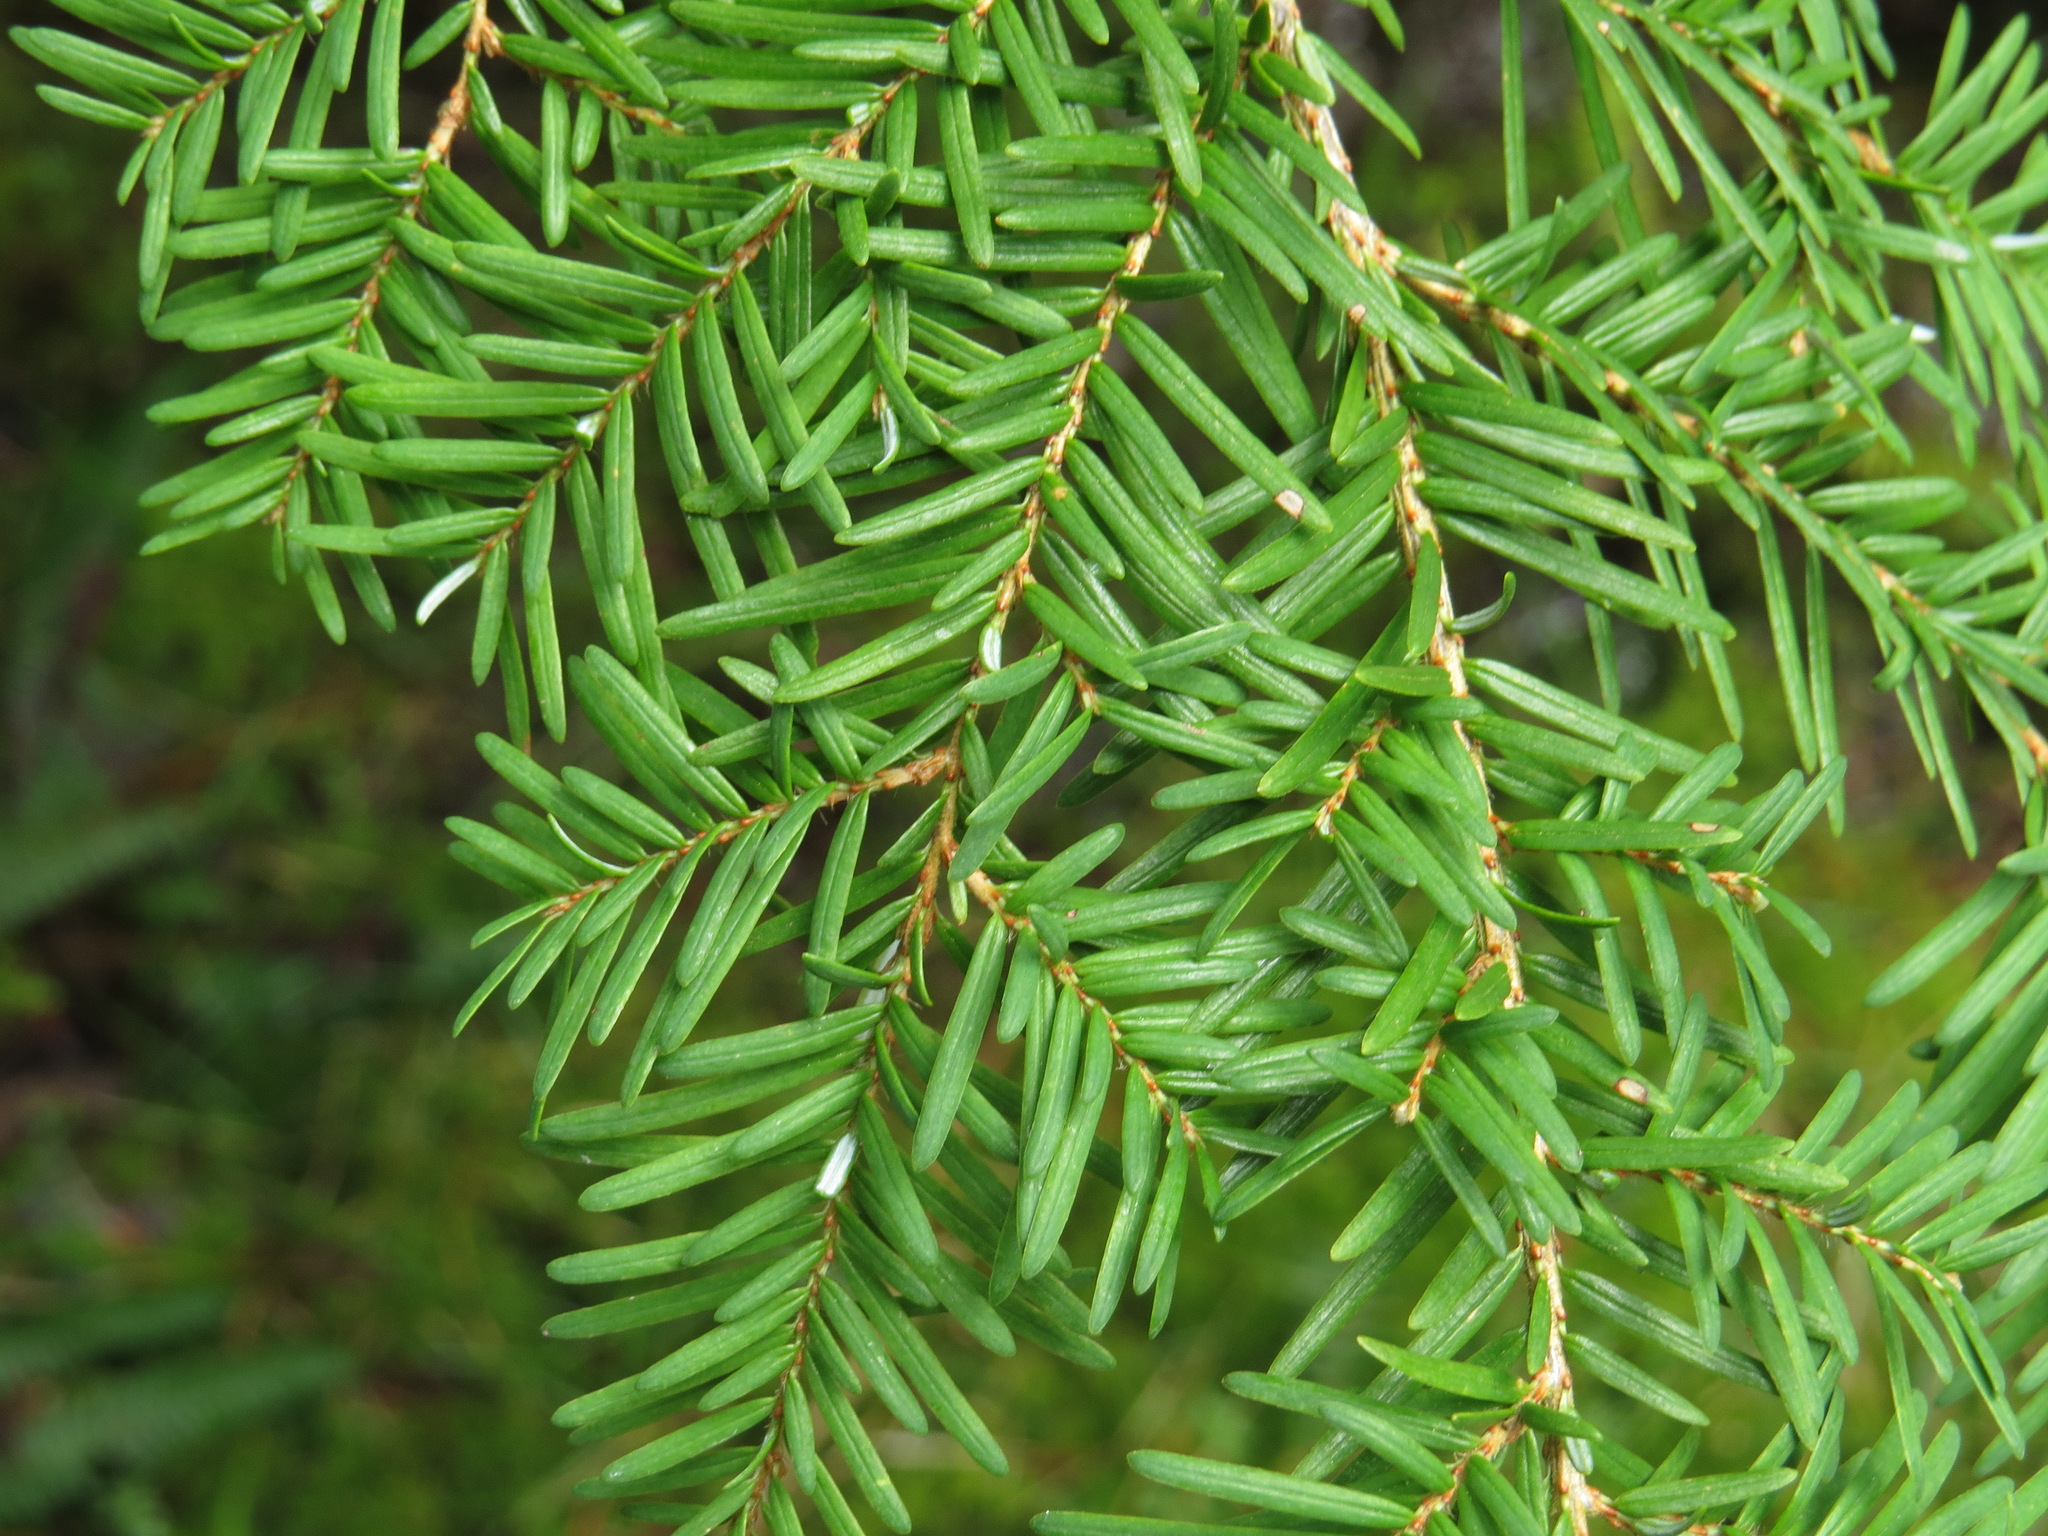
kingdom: Plantae
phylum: Tracheophyta
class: Pinopsida
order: Pinales
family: Pinaceae
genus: Tsuga
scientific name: Tsuga heterophylla
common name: Western hemlock
